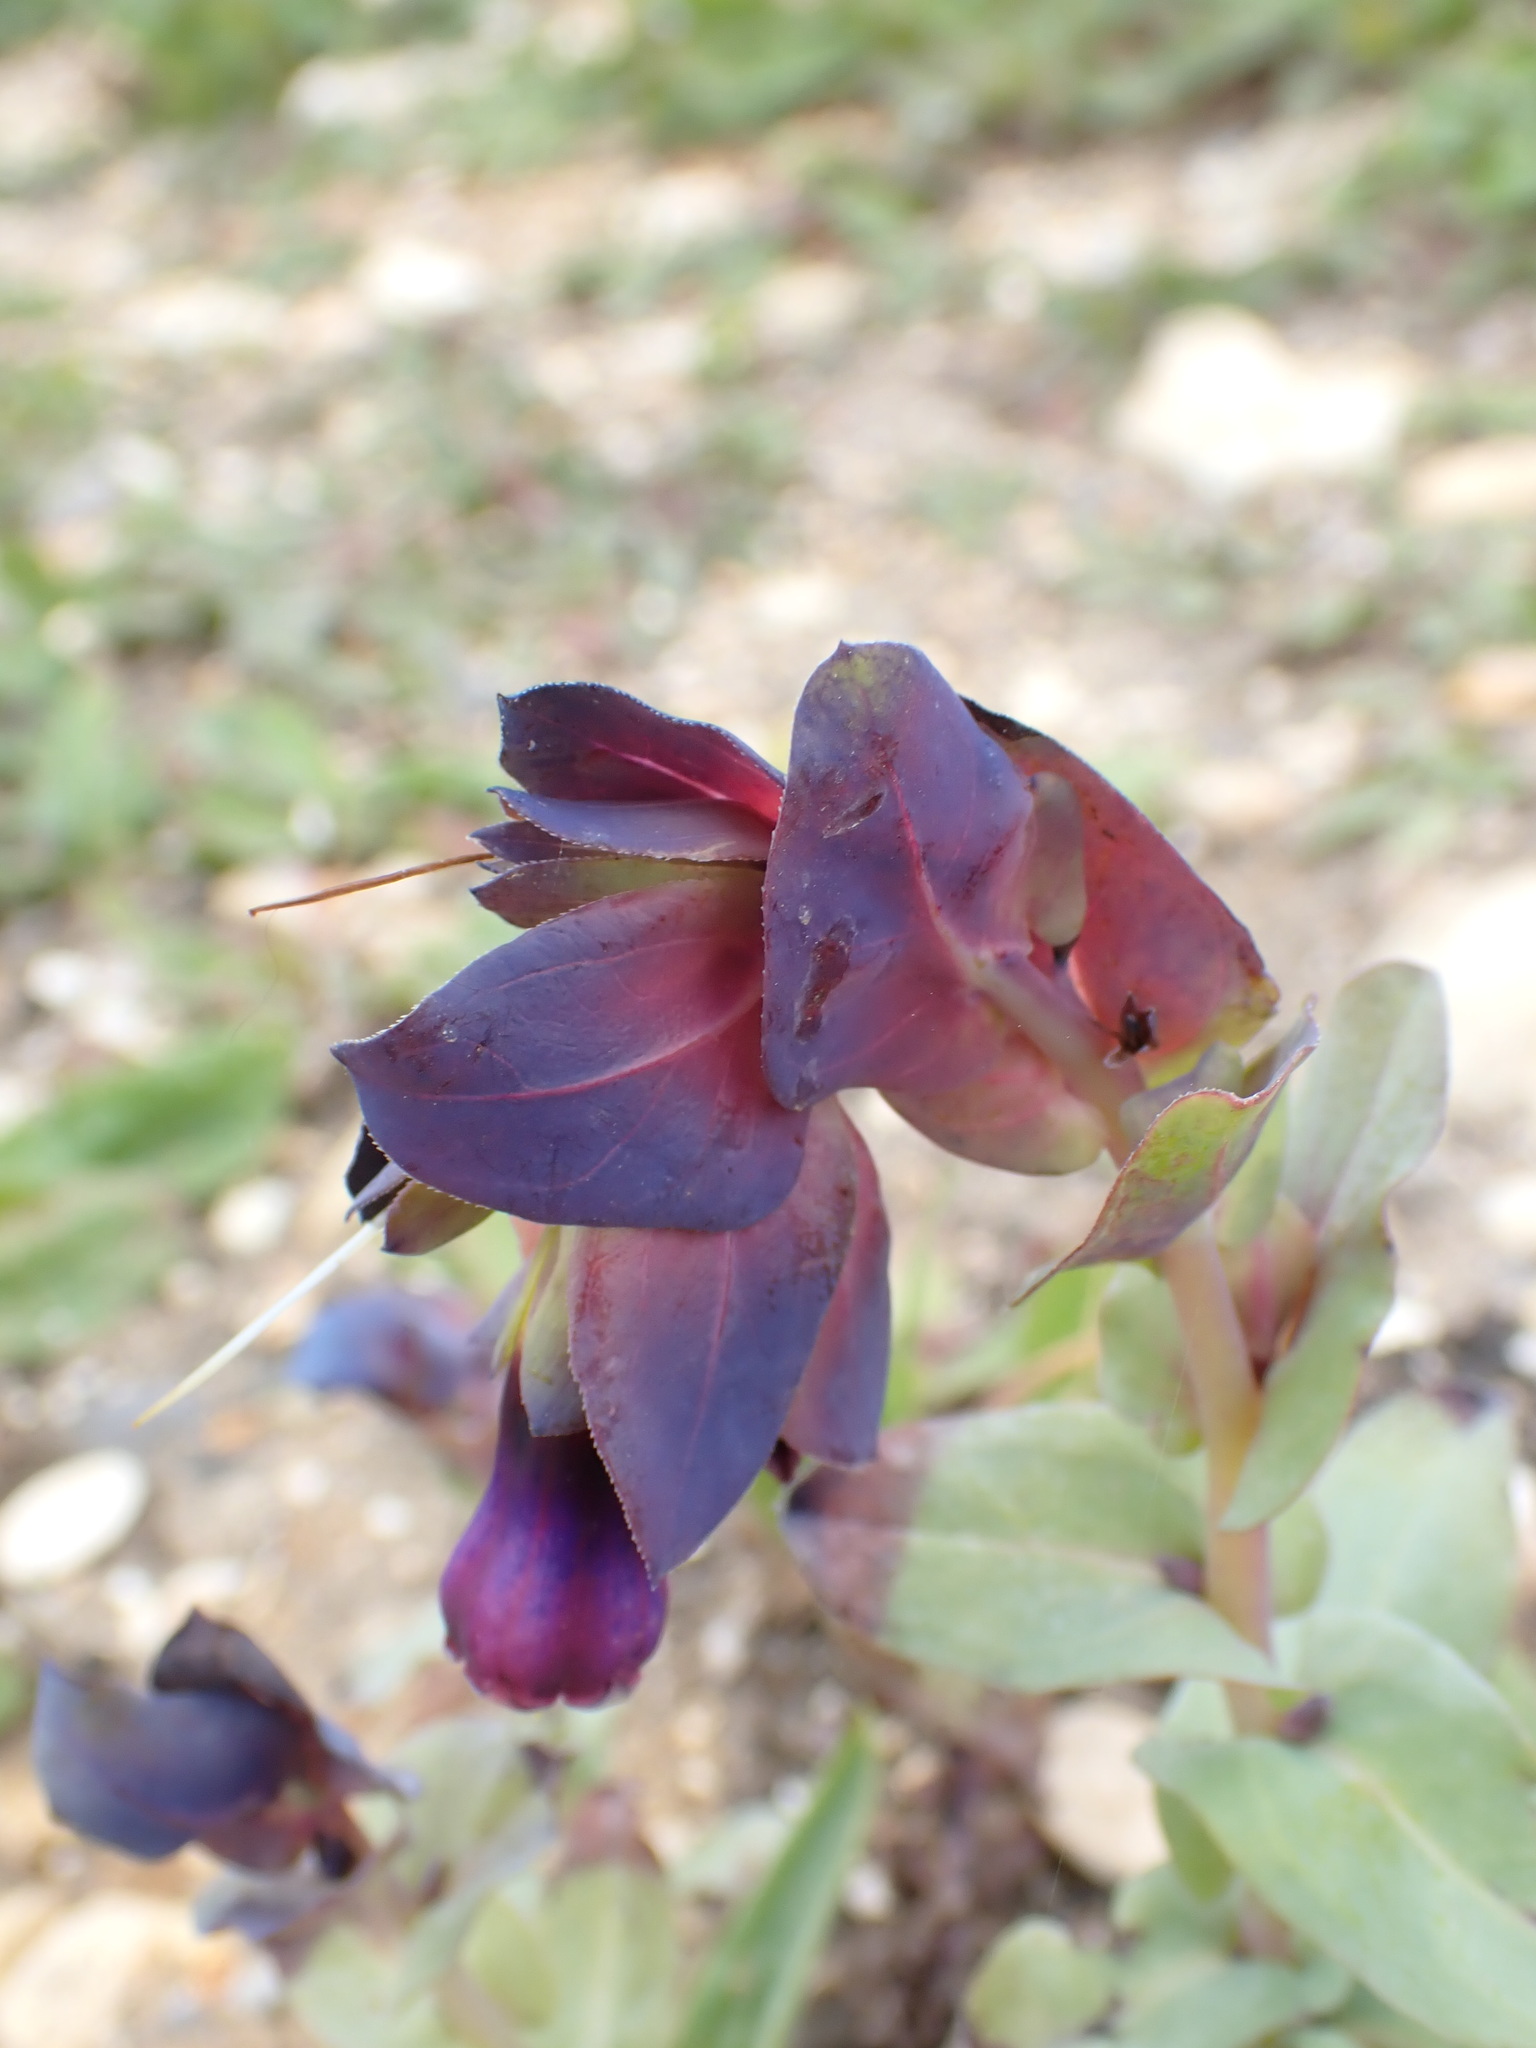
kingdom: Plantae
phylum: Tracheophyta
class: Magnoliopsida
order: Boraginales
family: Boraginaceae
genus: Cerinthe
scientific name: Cerinthe major
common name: Greater honeywort
